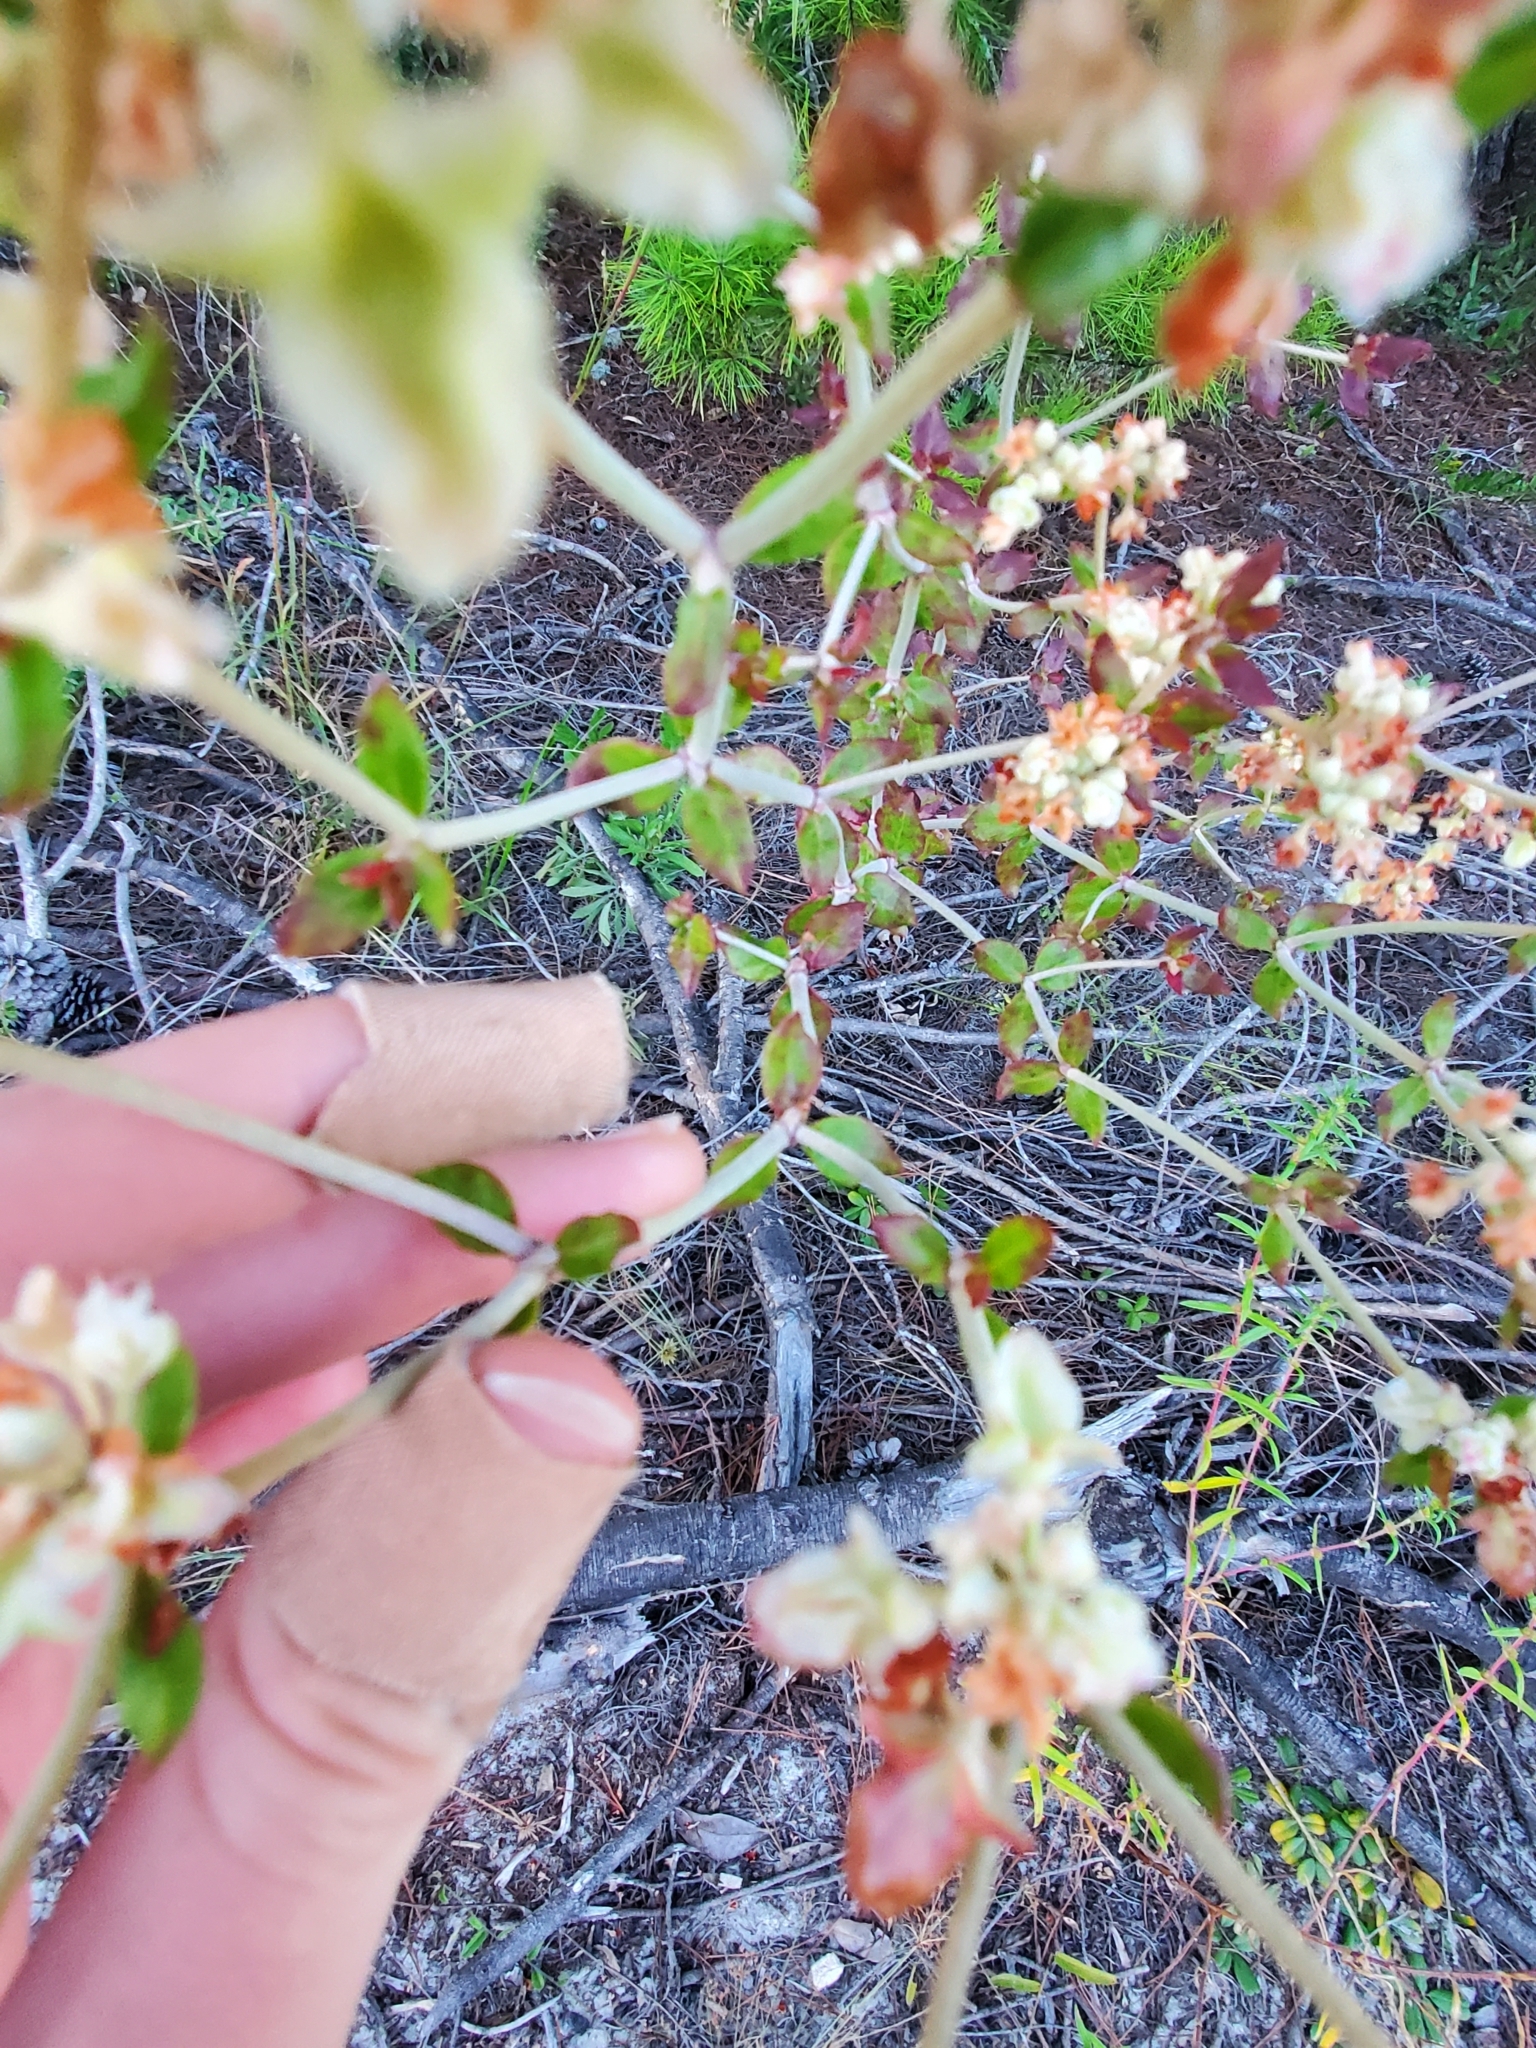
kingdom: Plantae
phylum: Tracheophyta
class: Magnoliopsida
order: Caryophyllales
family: Polygonaceae
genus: Eriogonum
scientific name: Eriogonum tomentosum
